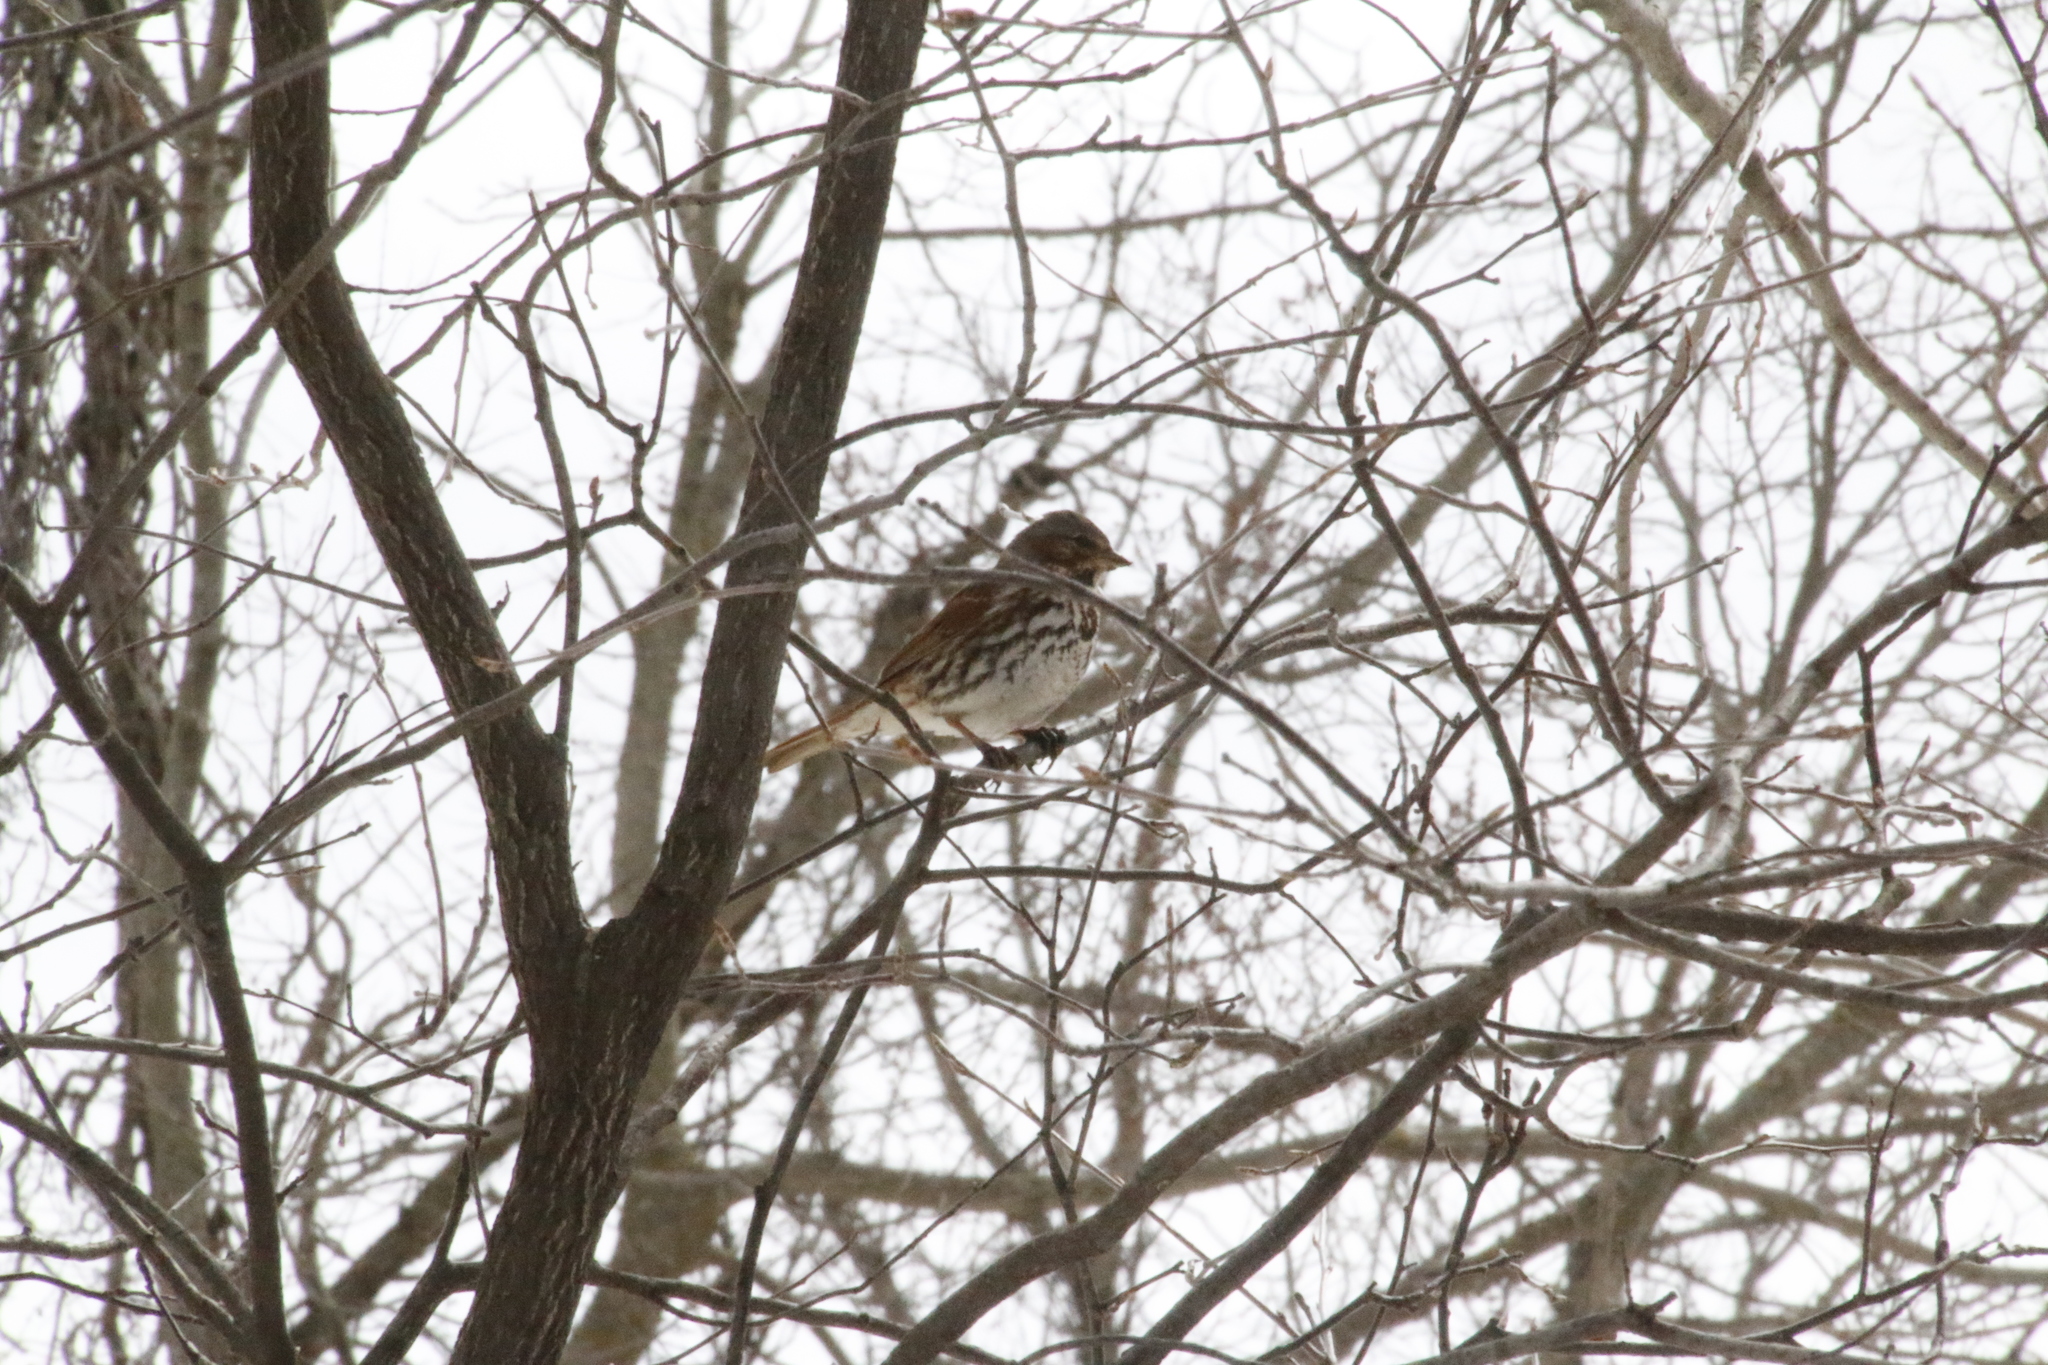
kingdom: Animalia
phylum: Chordata
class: Aves
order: Passeriformes
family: Passerellidae
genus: Passerella
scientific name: Passerella iliaca
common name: Fox sparrow
